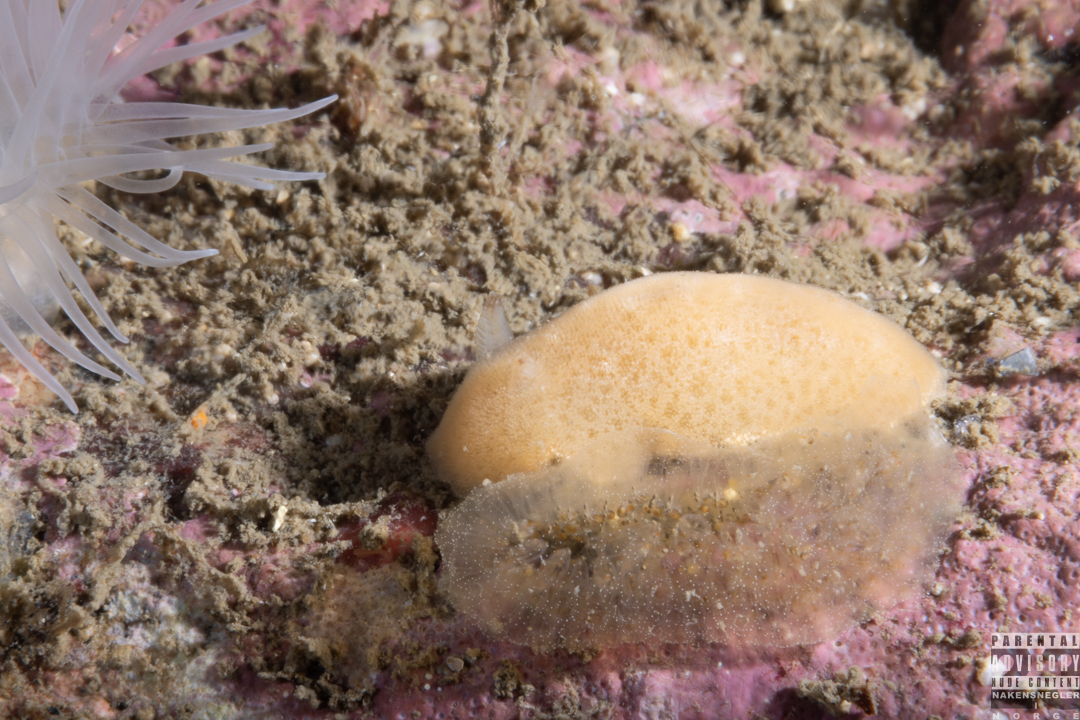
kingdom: Animalia
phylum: Mollusca
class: Gastropoda
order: Nudibranchia
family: Discodorididae
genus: Jorunna
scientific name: Jorunna tomentosa
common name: Grey sea slug
